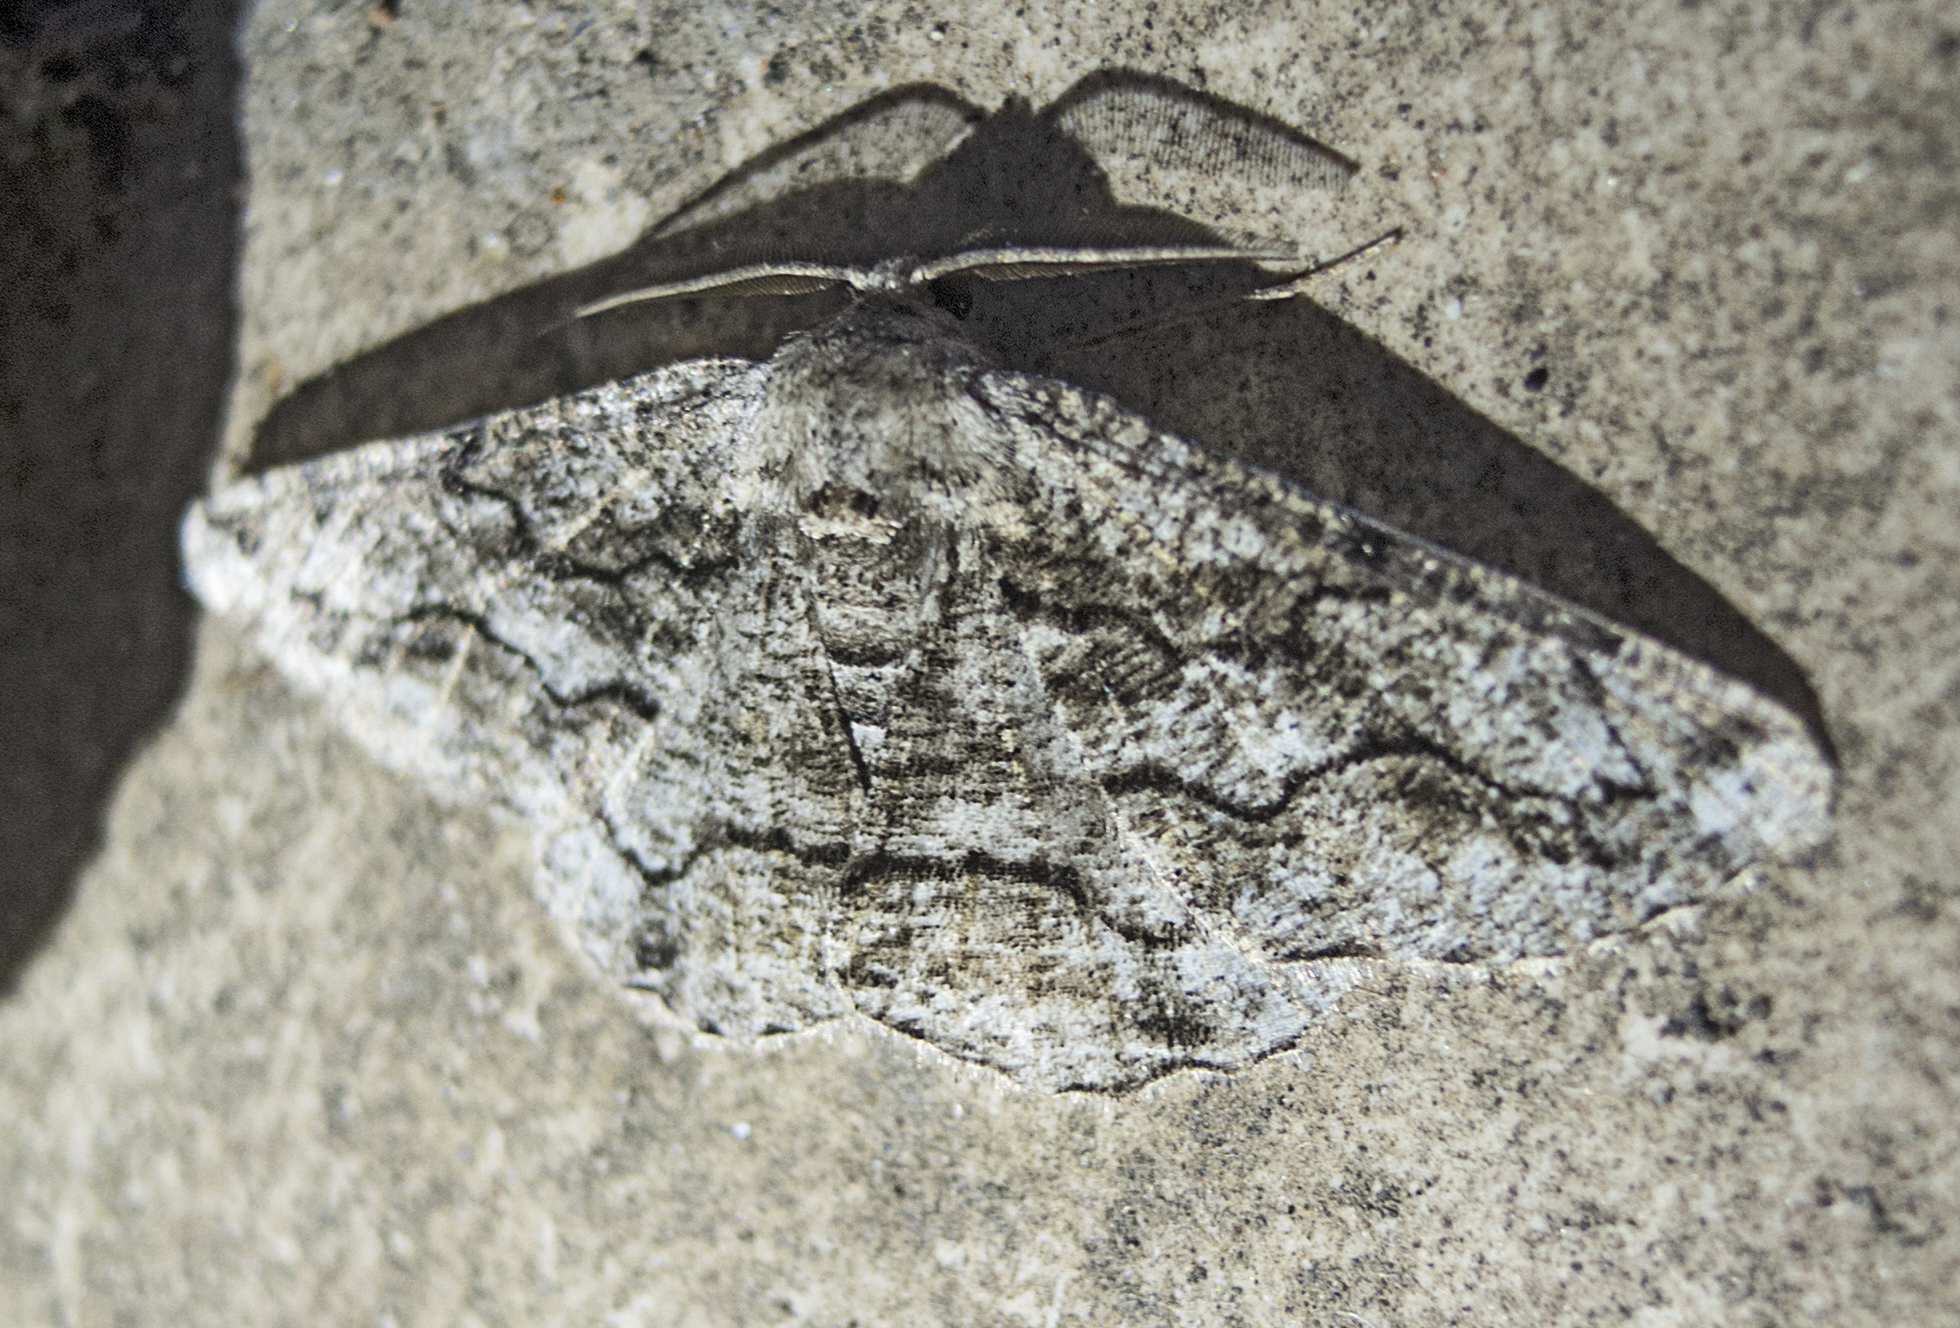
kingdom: Animalia
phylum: Arthropoda
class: Insecta
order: Lepidoptera
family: Geometridae
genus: Synopsia
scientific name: Synopsia sociaria
